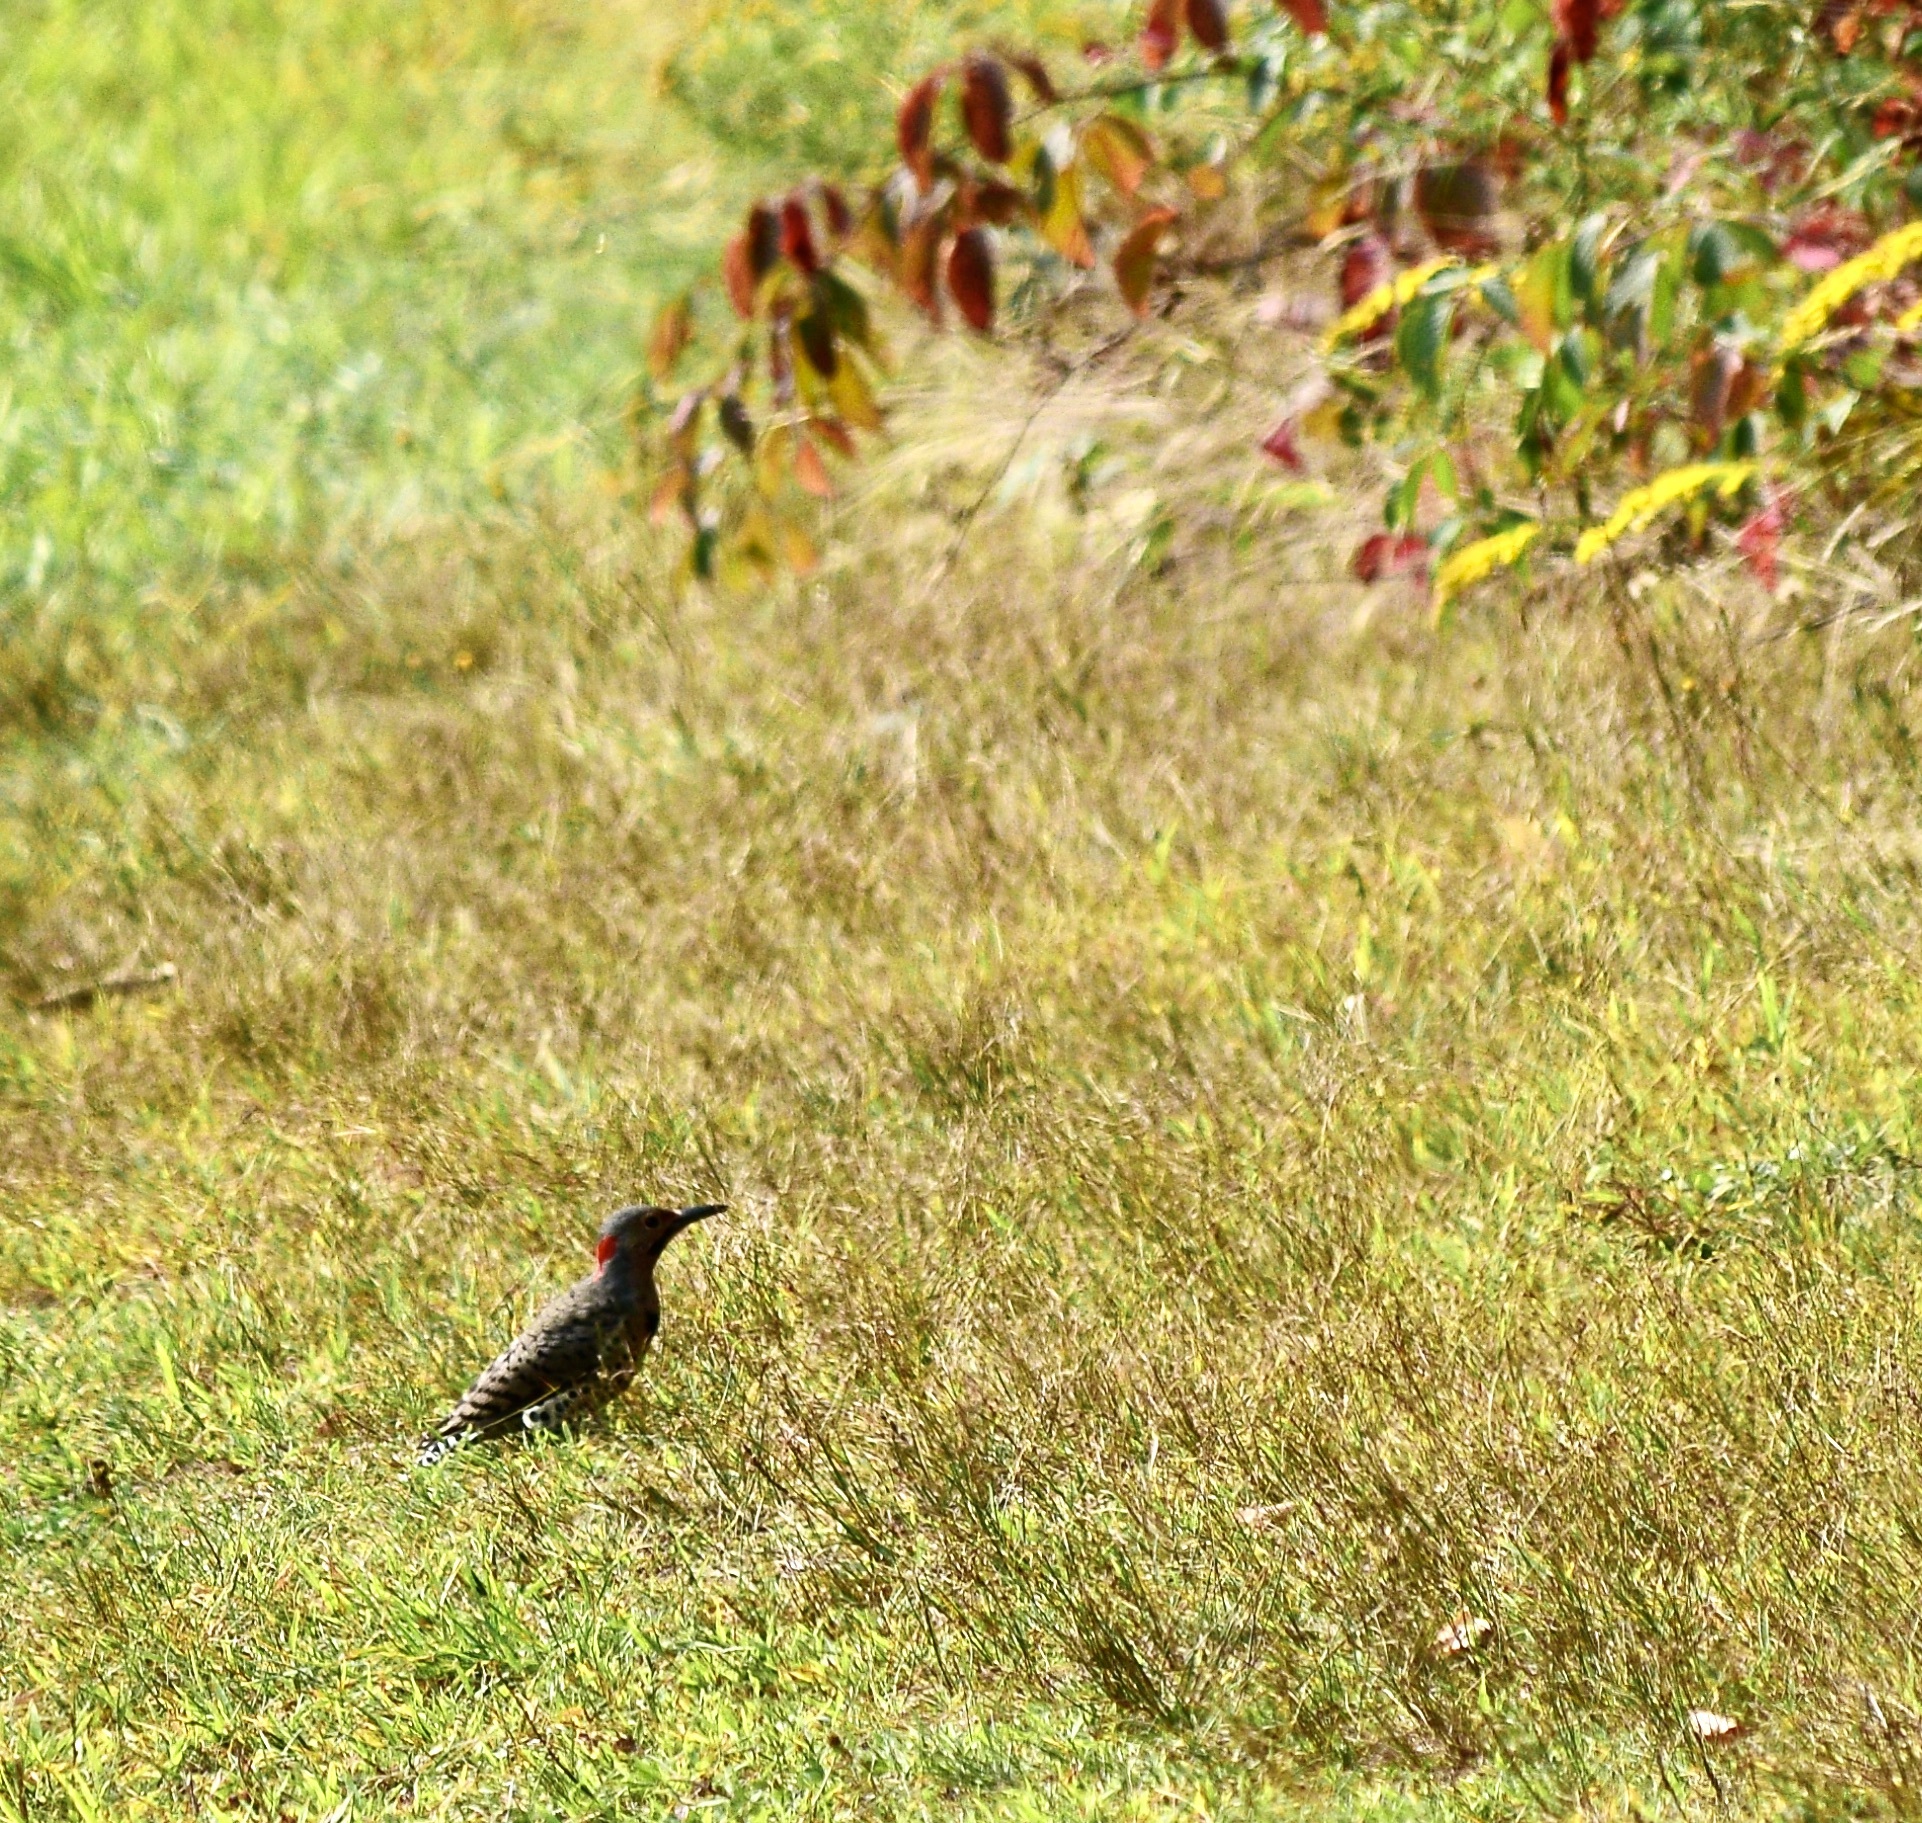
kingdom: Animalia
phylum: Chordata
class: Aves
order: Piciformes
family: Picidae
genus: Colaptes
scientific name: Colaptes auratus
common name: Northern flicker
